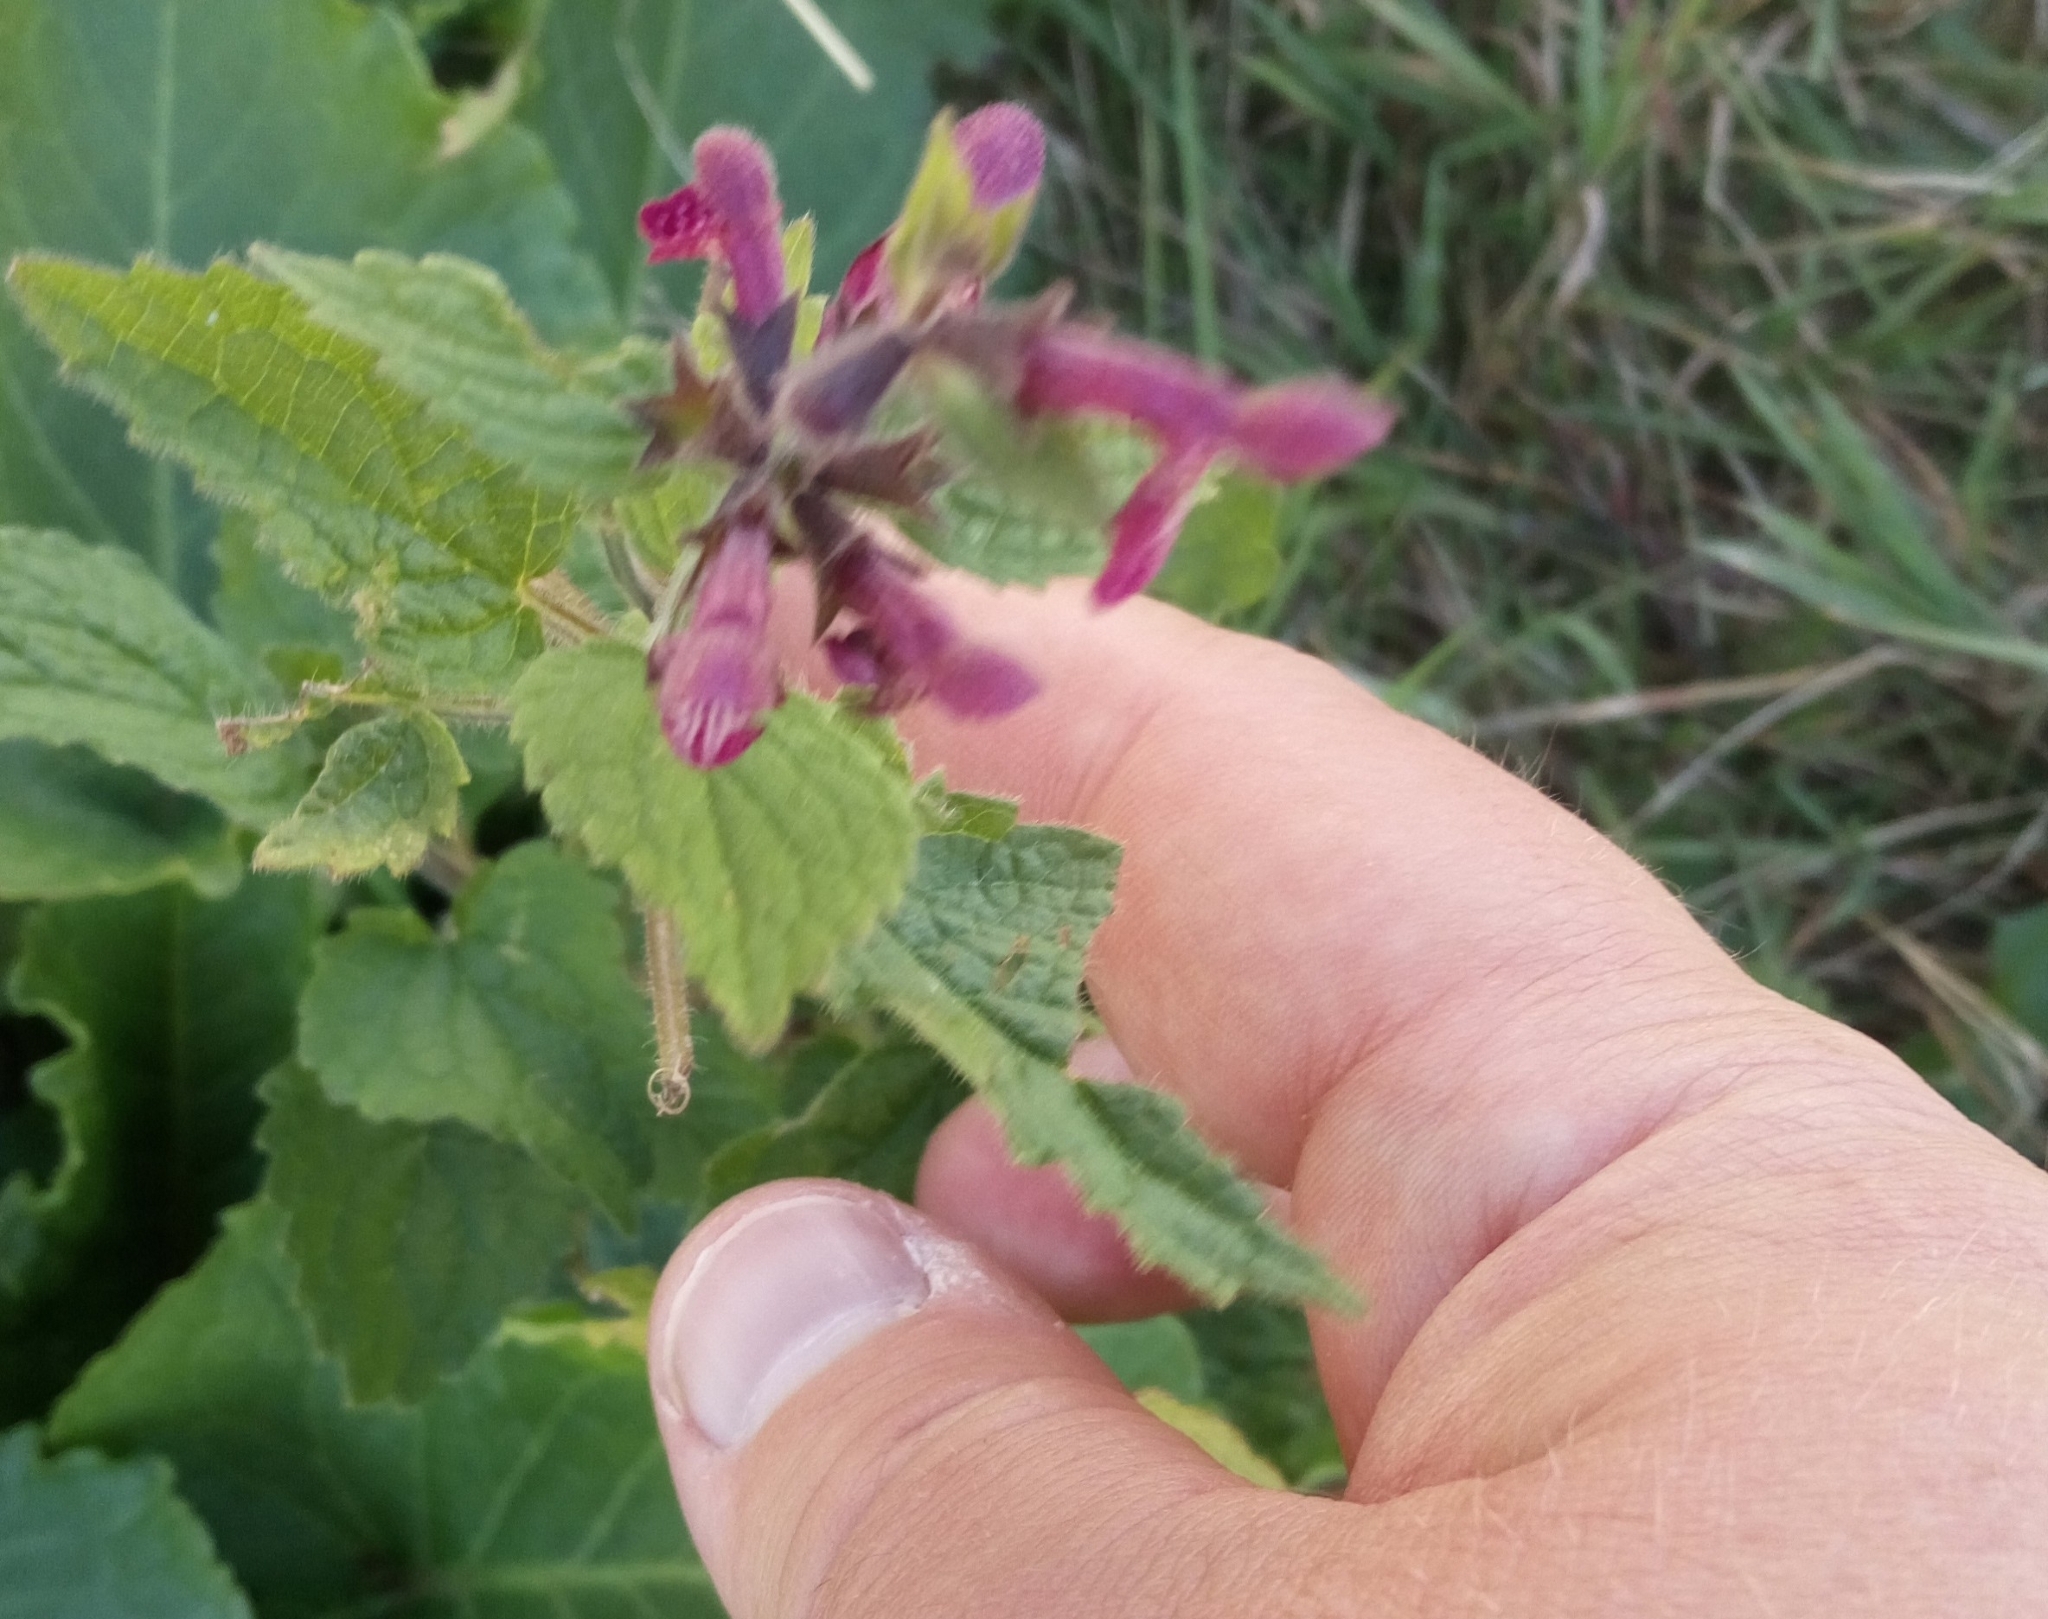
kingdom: Plantae
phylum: Tracheophyta
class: Magnoliopsida
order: Lamiales
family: Lamiaceae
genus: Stachys
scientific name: Stachys sylvatica
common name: Hedge woundwort
